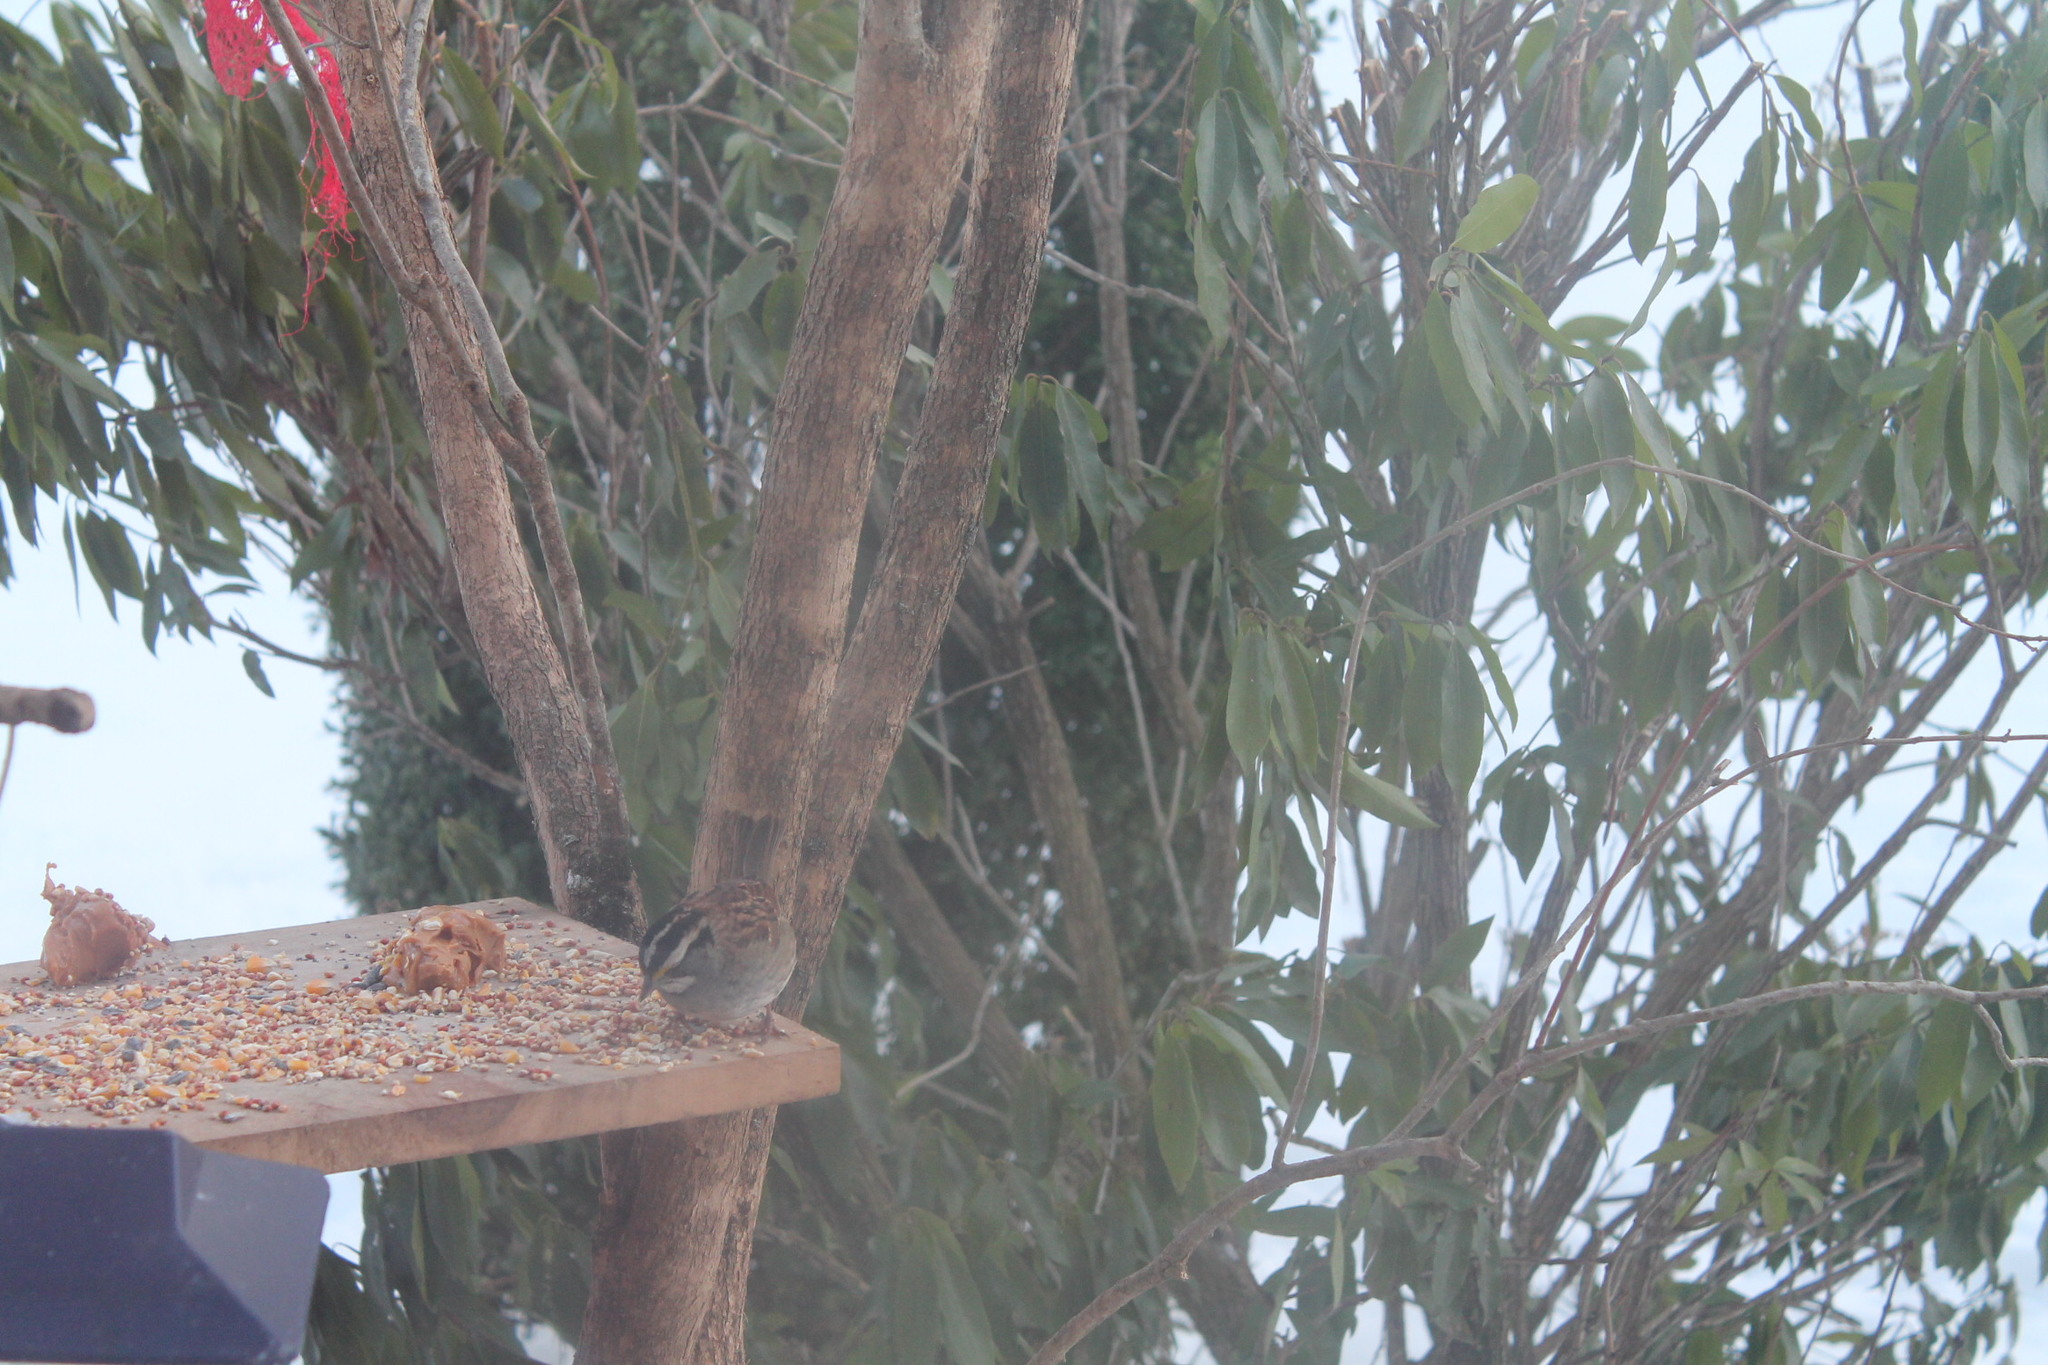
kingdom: Animalia
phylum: Chordata
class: Aves
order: Passeriformes
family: Passerellidae
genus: Zonotrichia
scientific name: Zonotrichia albicollis
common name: White-throated sparrow
